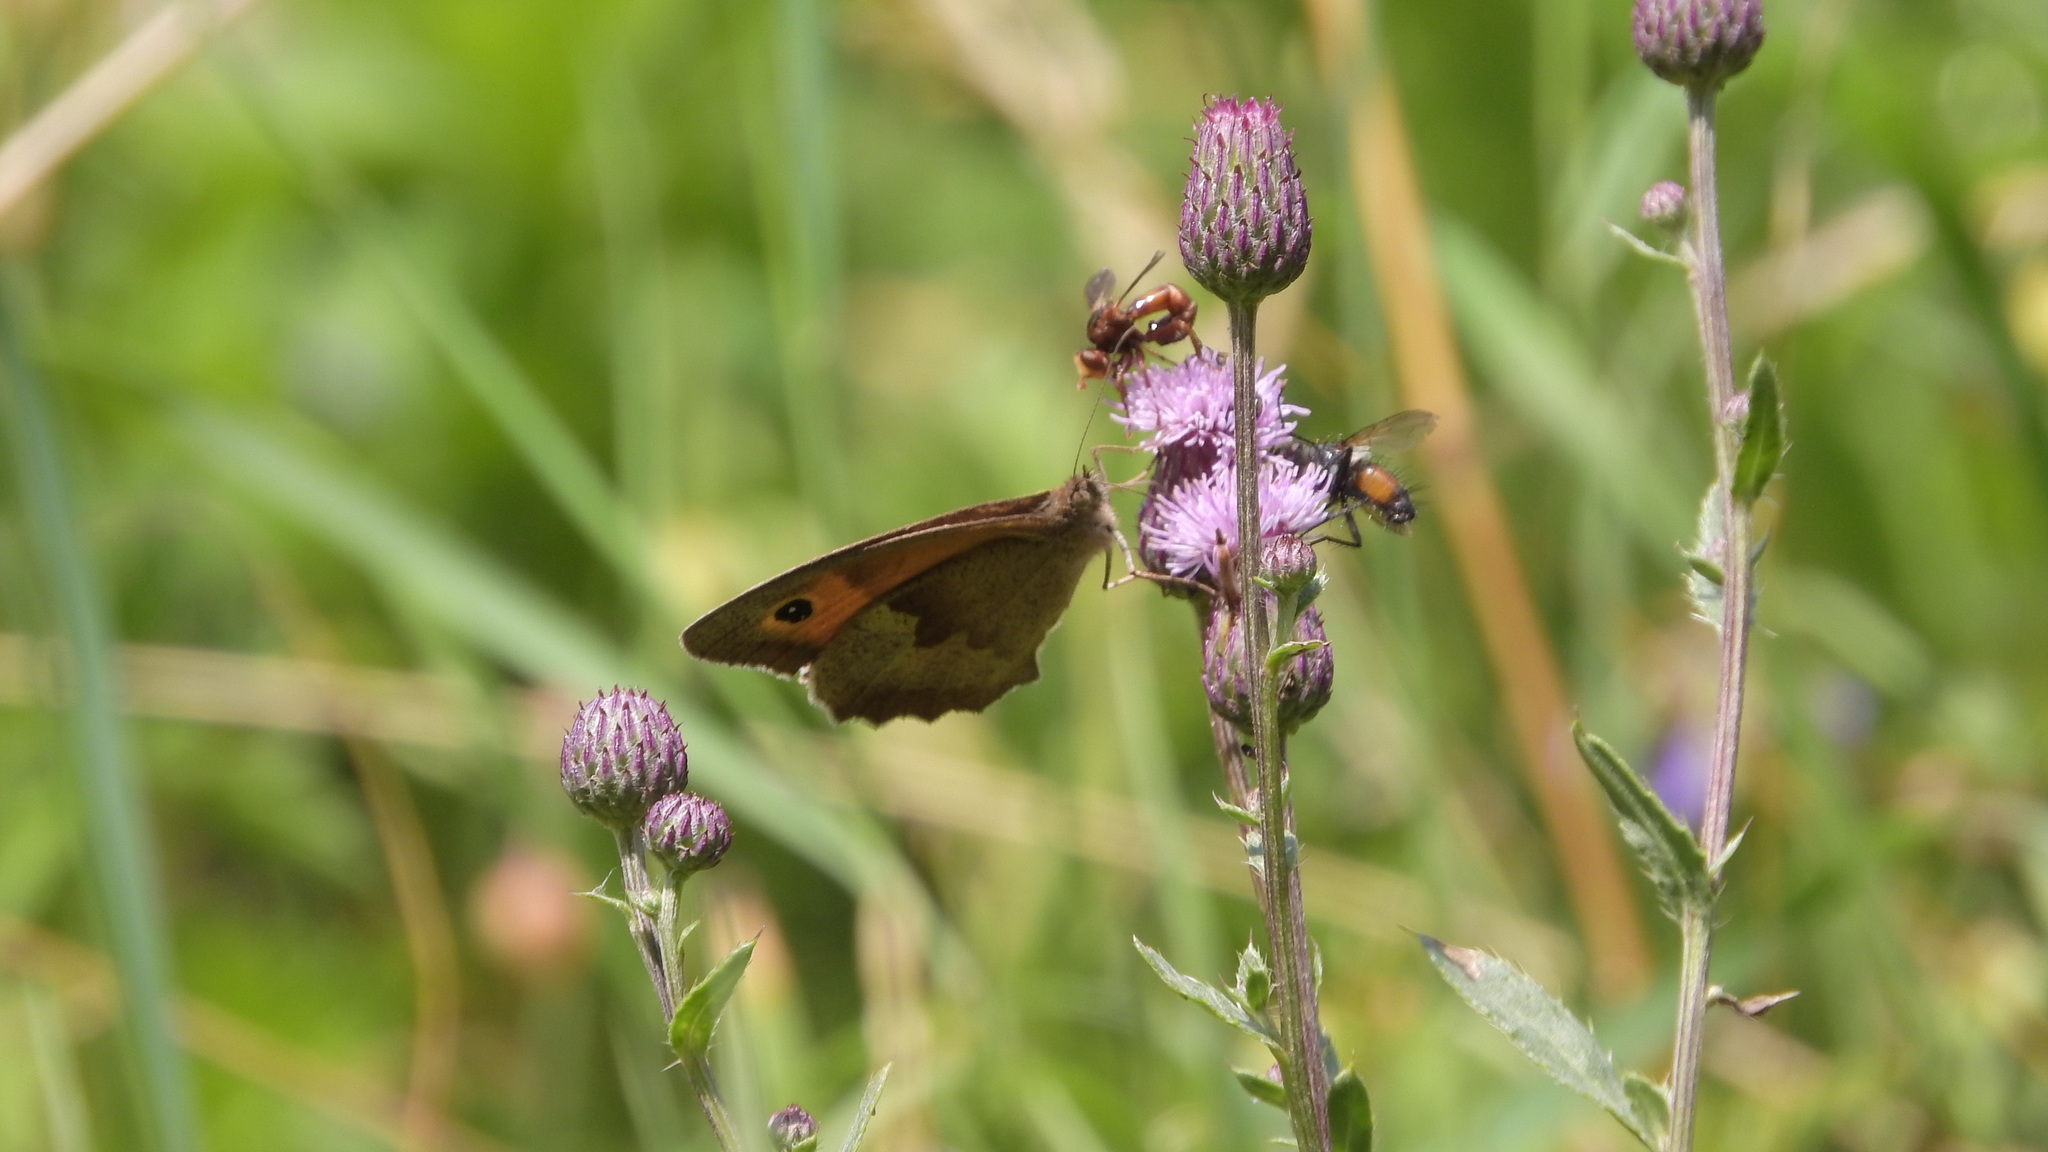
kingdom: Animalia
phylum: Arthropoda
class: Insecta
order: Lepidoptera
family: Nymphalidae
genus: Maniola
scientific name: Maniola jurtina
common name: Meadow brown
